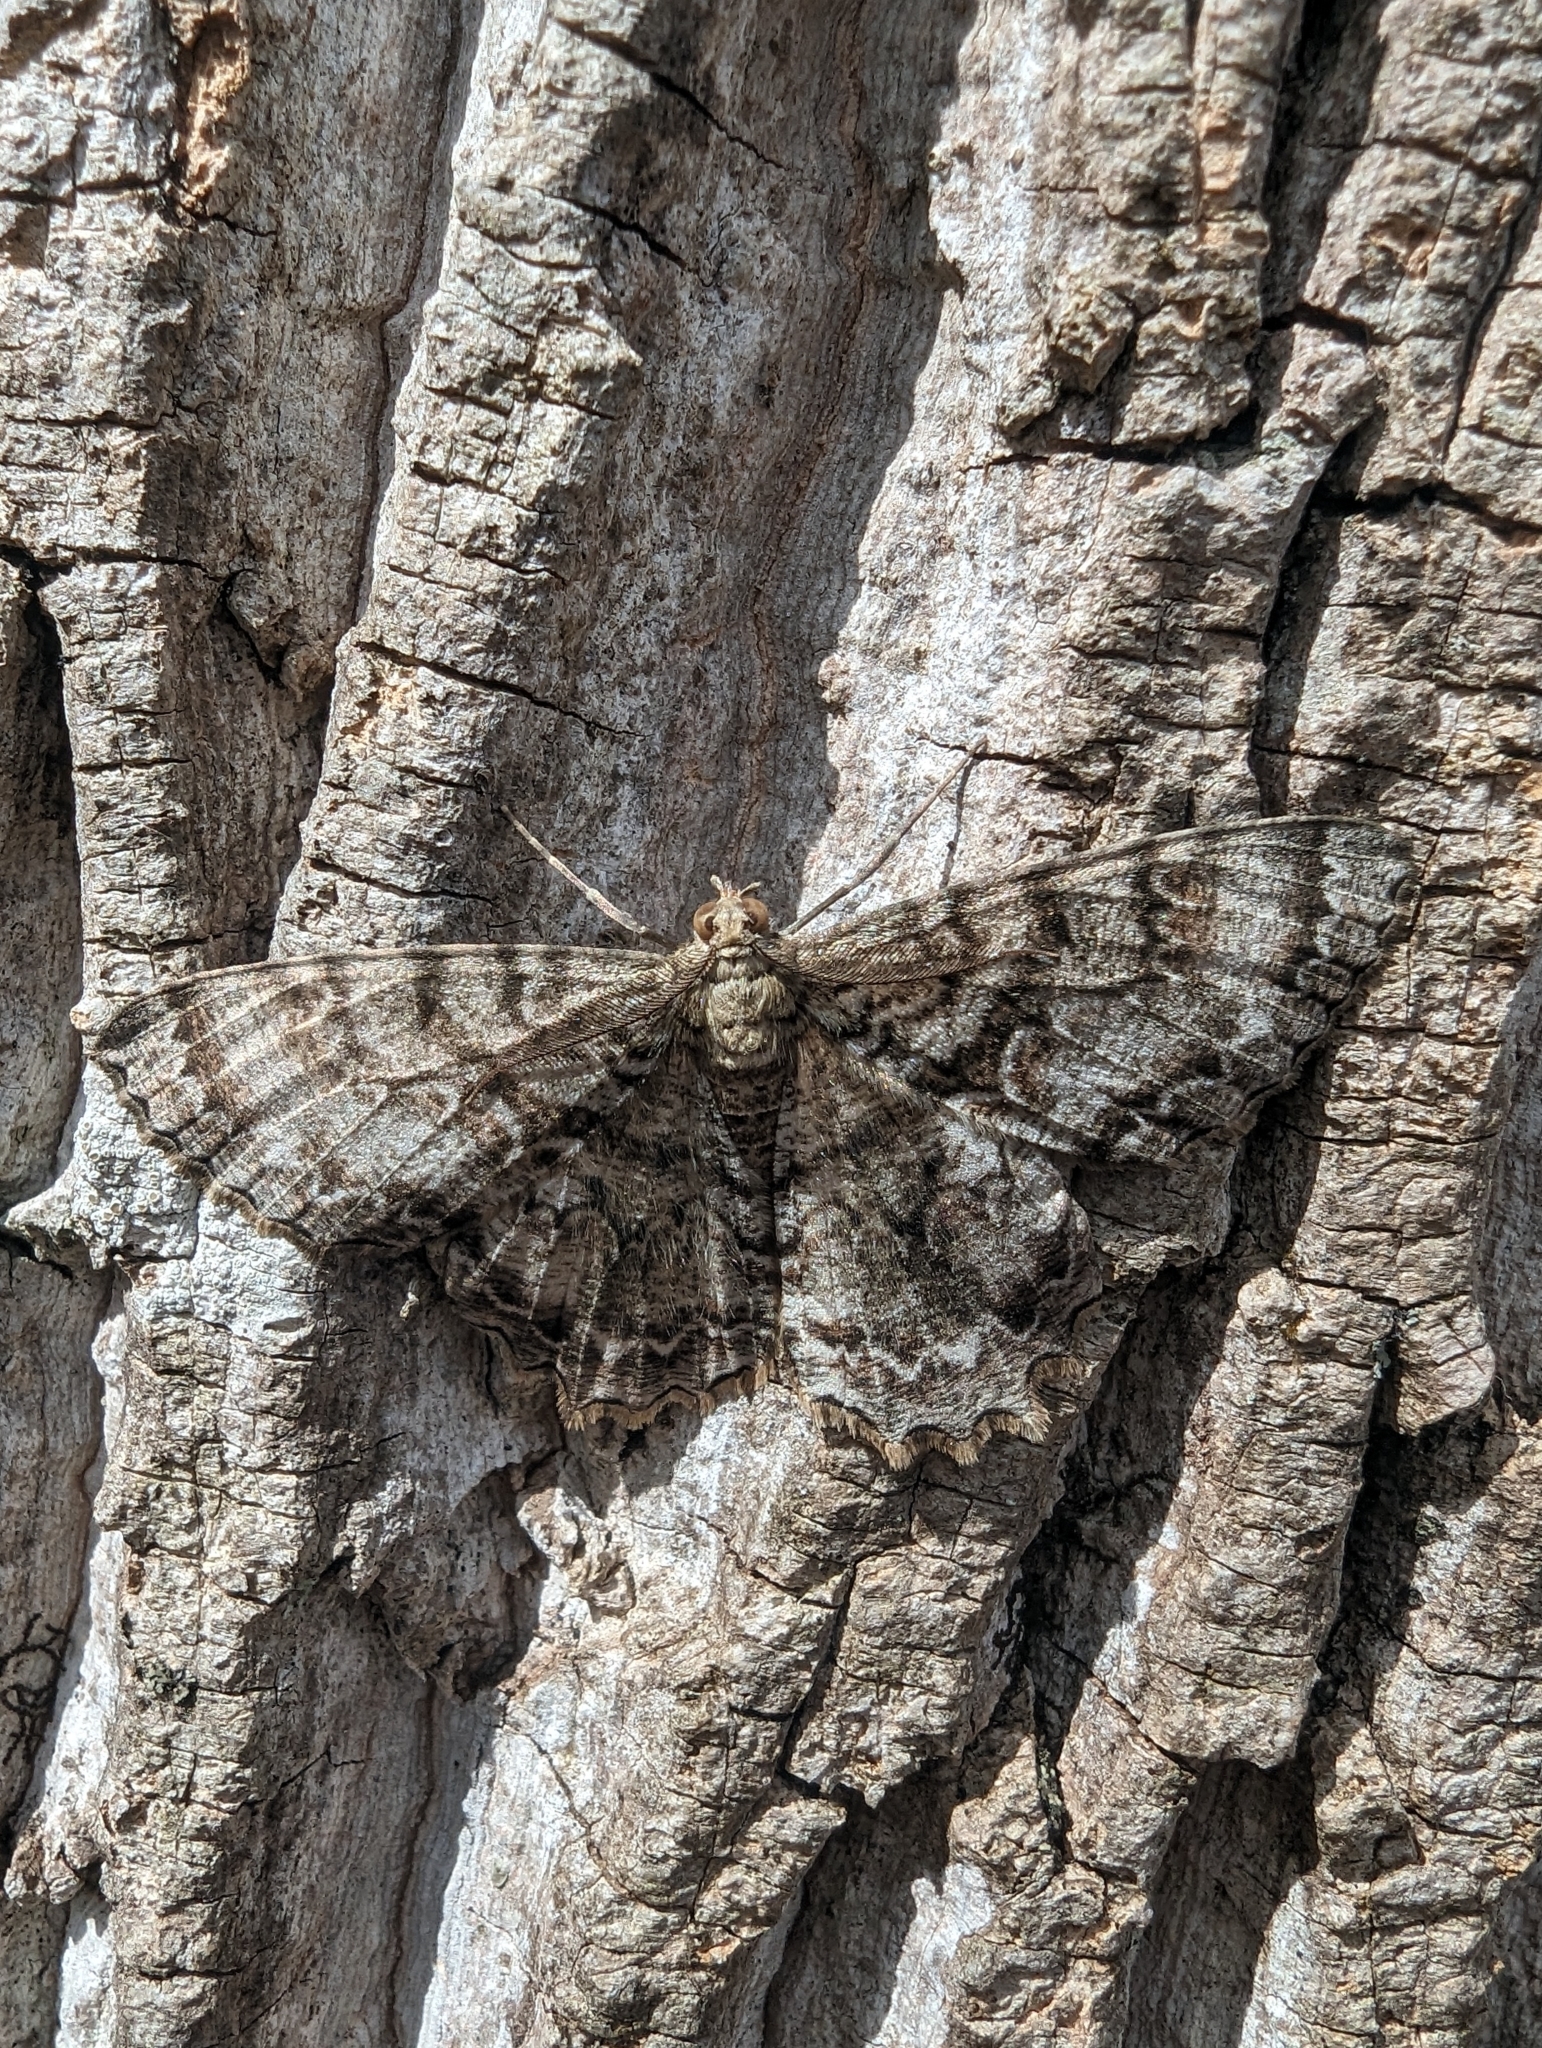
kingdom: Animalia
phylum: Arthropoda
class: Insecta
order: Lepidoptera
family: Geometridae
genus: Epimecis
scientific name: Epimecis hortaria
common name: Tulip-tree beauty
